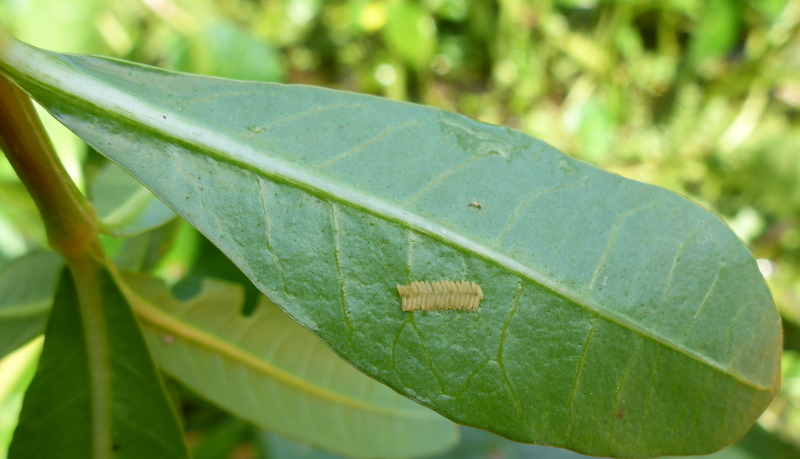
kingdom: Animalia
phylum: Arthropoda
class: Insecta
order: Coleoptera
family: Chrysomelidae
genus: Agasicles
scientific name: Agasicles hygrophila
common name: Alligatorweed flea beetle
